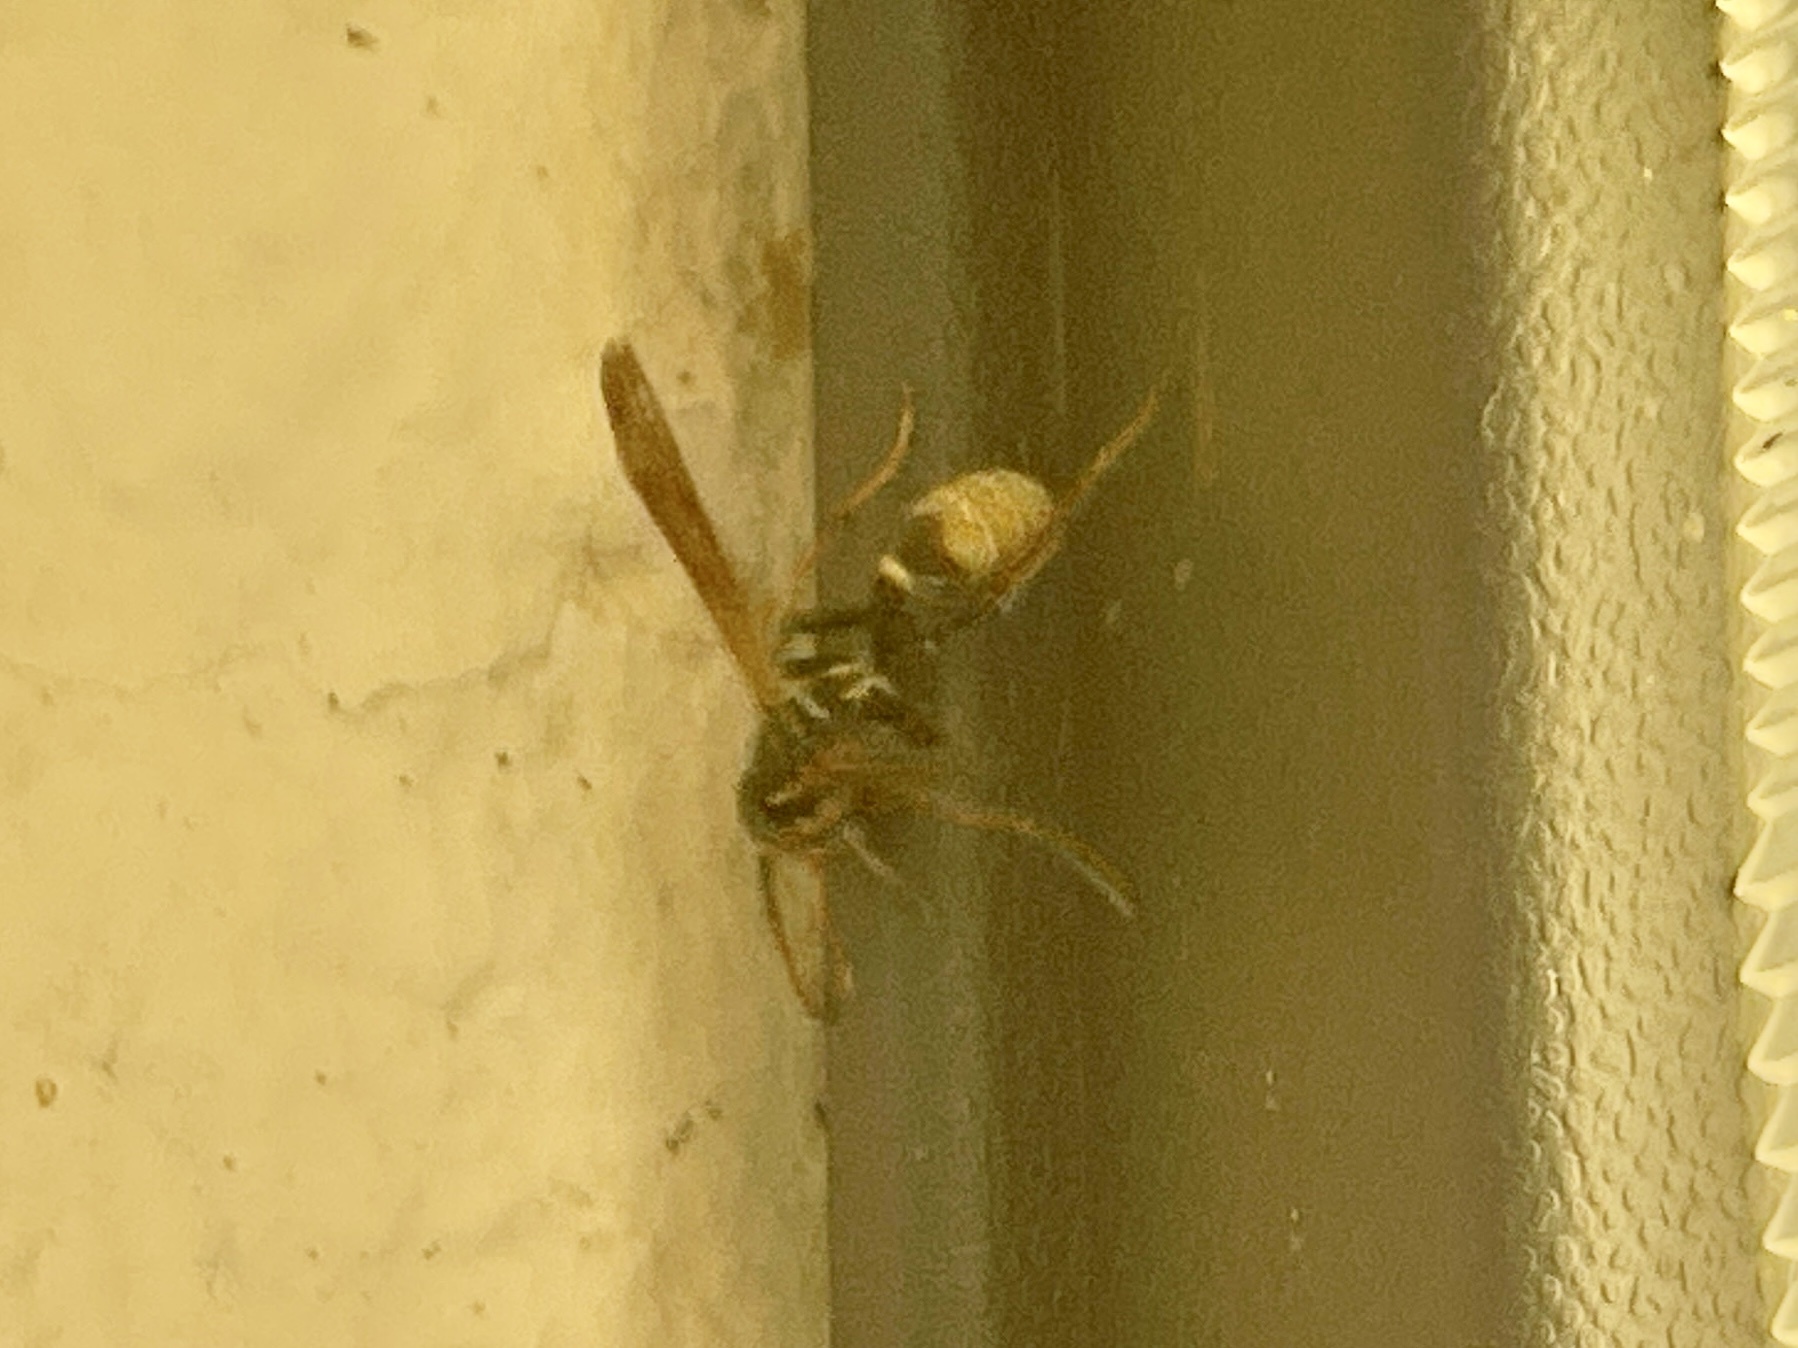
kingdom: Animalia
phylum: Arthropoda
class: Insecta
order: Hymenoptera
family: Vespidae
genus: Mischocyttarus
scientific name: Mischocyttarus flavitarsis
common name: Wasp
